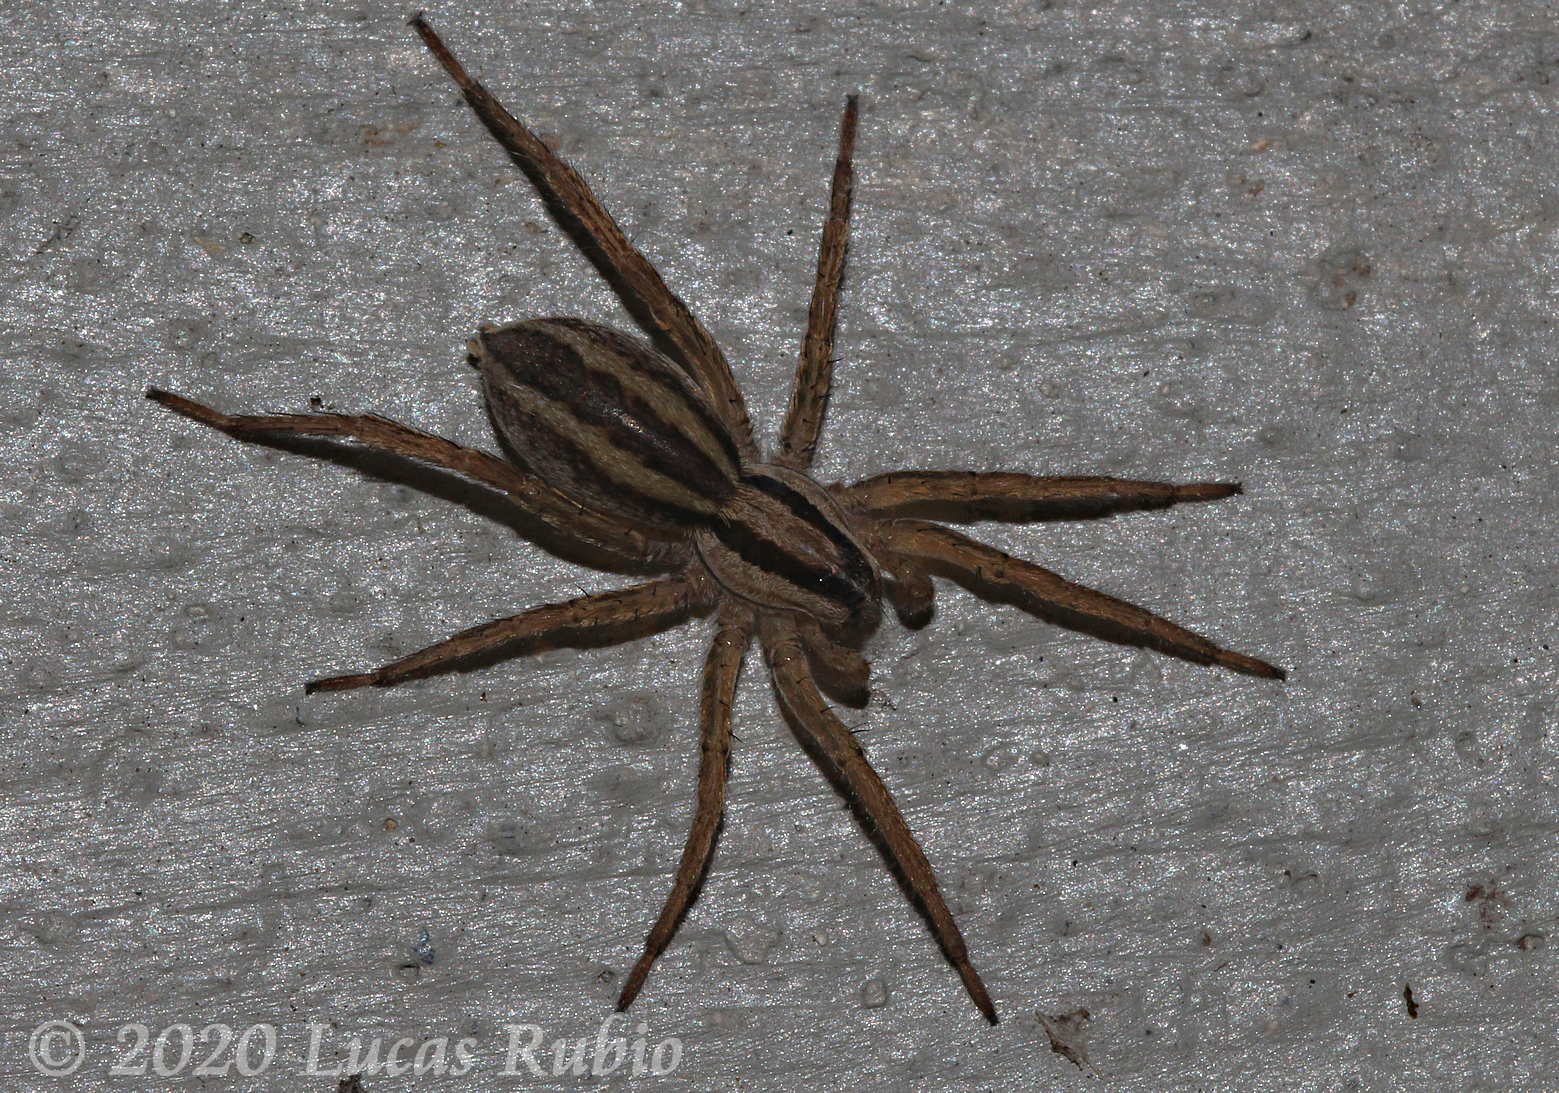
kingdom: Animalia
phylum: Arthropoda
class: Arachnida
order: Araneae
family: Lycosidae
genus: Hogna
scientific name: Hogna bivittata
